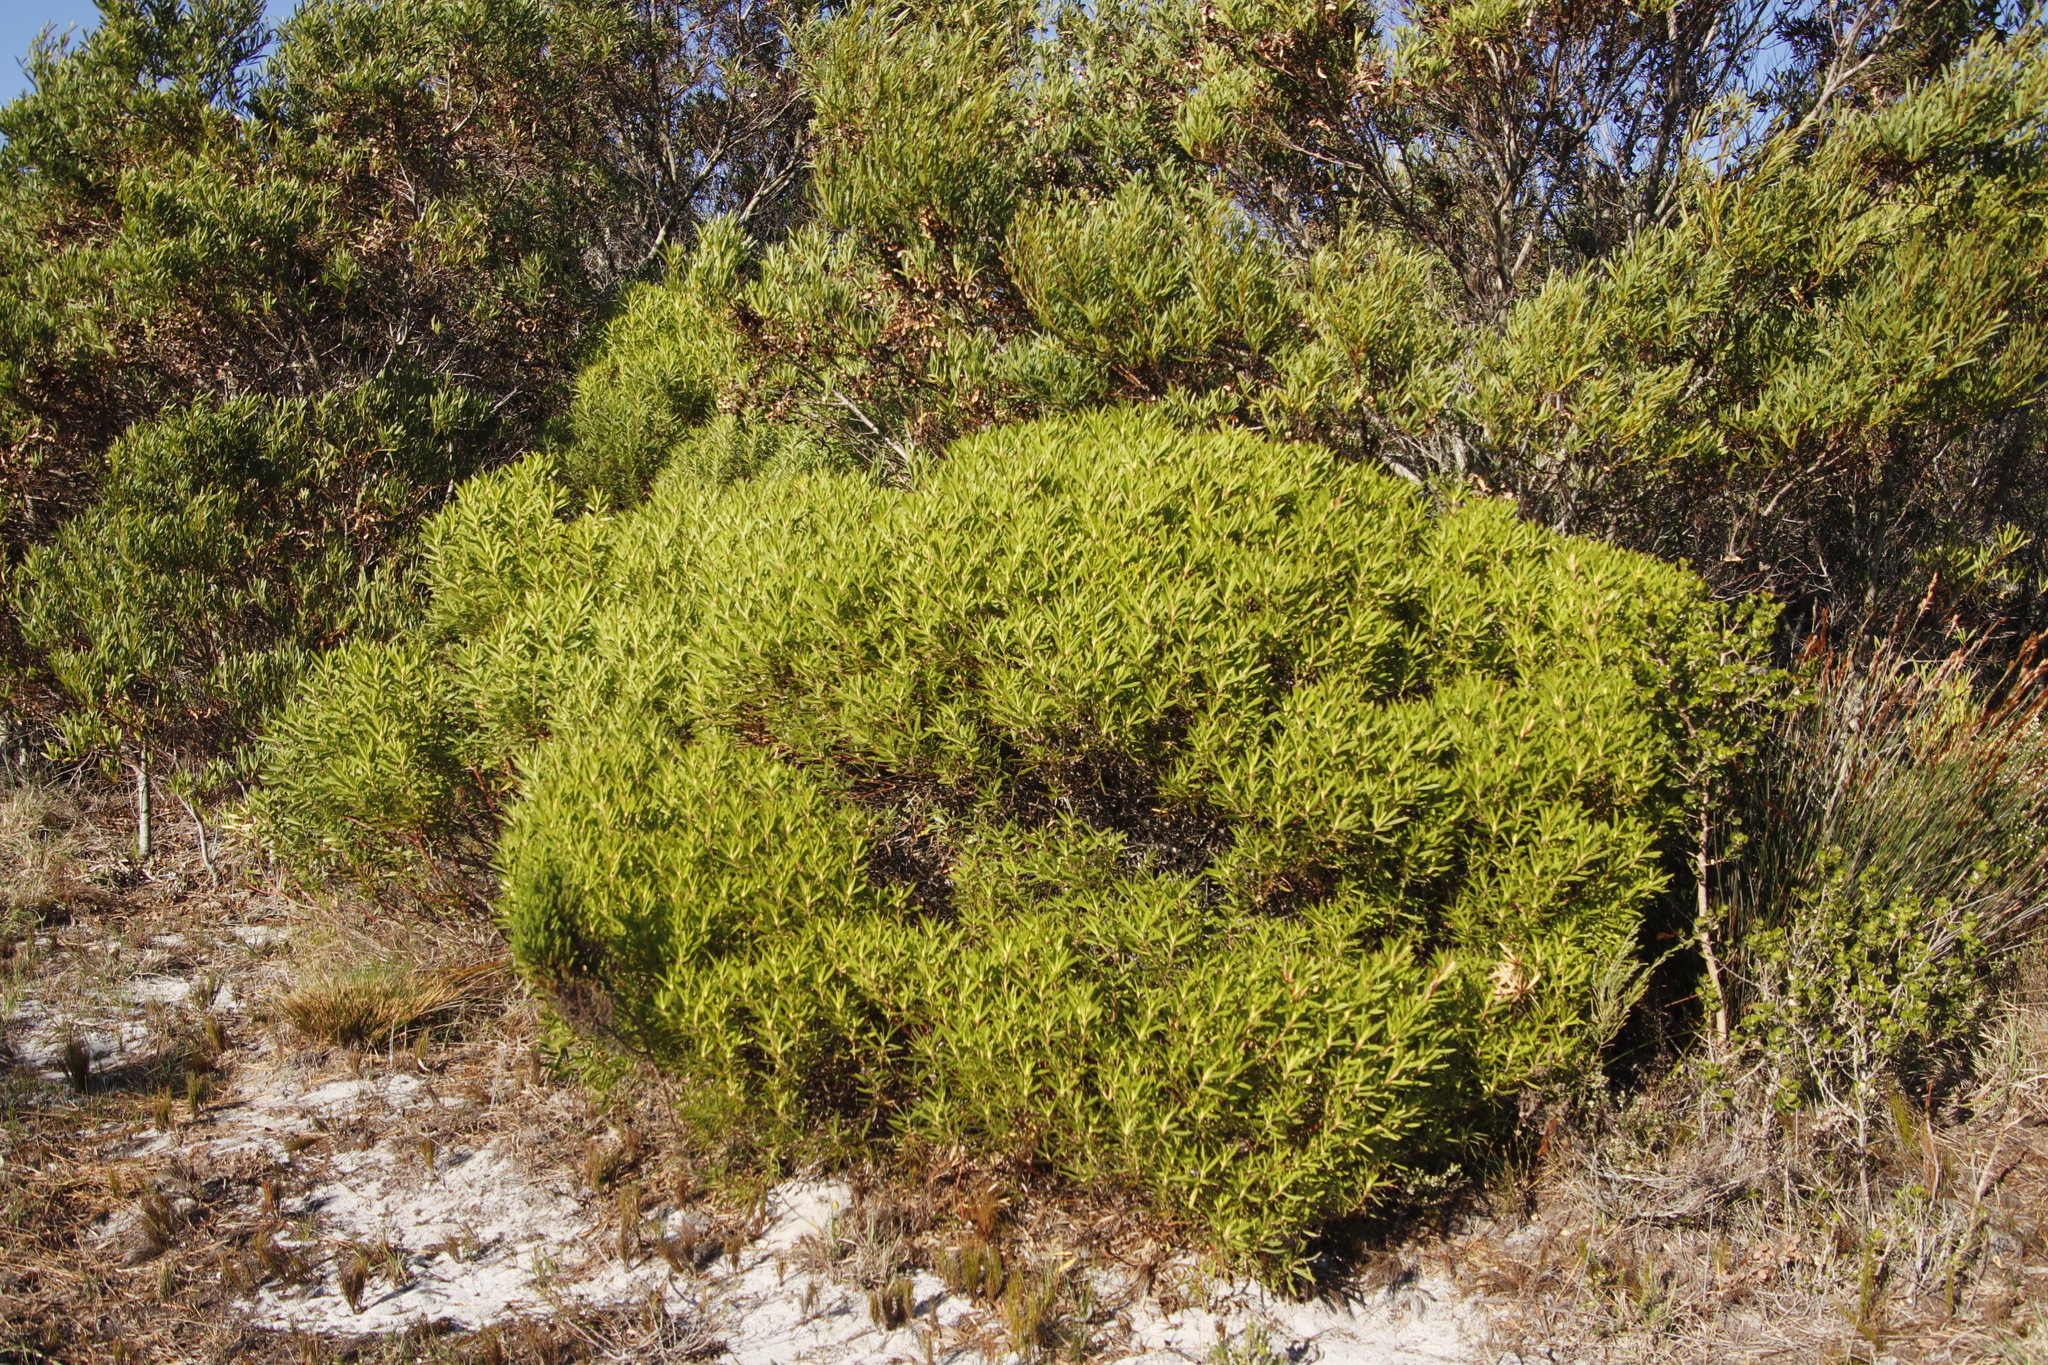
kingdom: Plantae
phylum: Tracheophyta
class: Magnoliopsida
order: Proteales
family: Proteaceae
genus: Leucadendron
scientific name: Leucadendron coniferum
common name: Dune conebush
